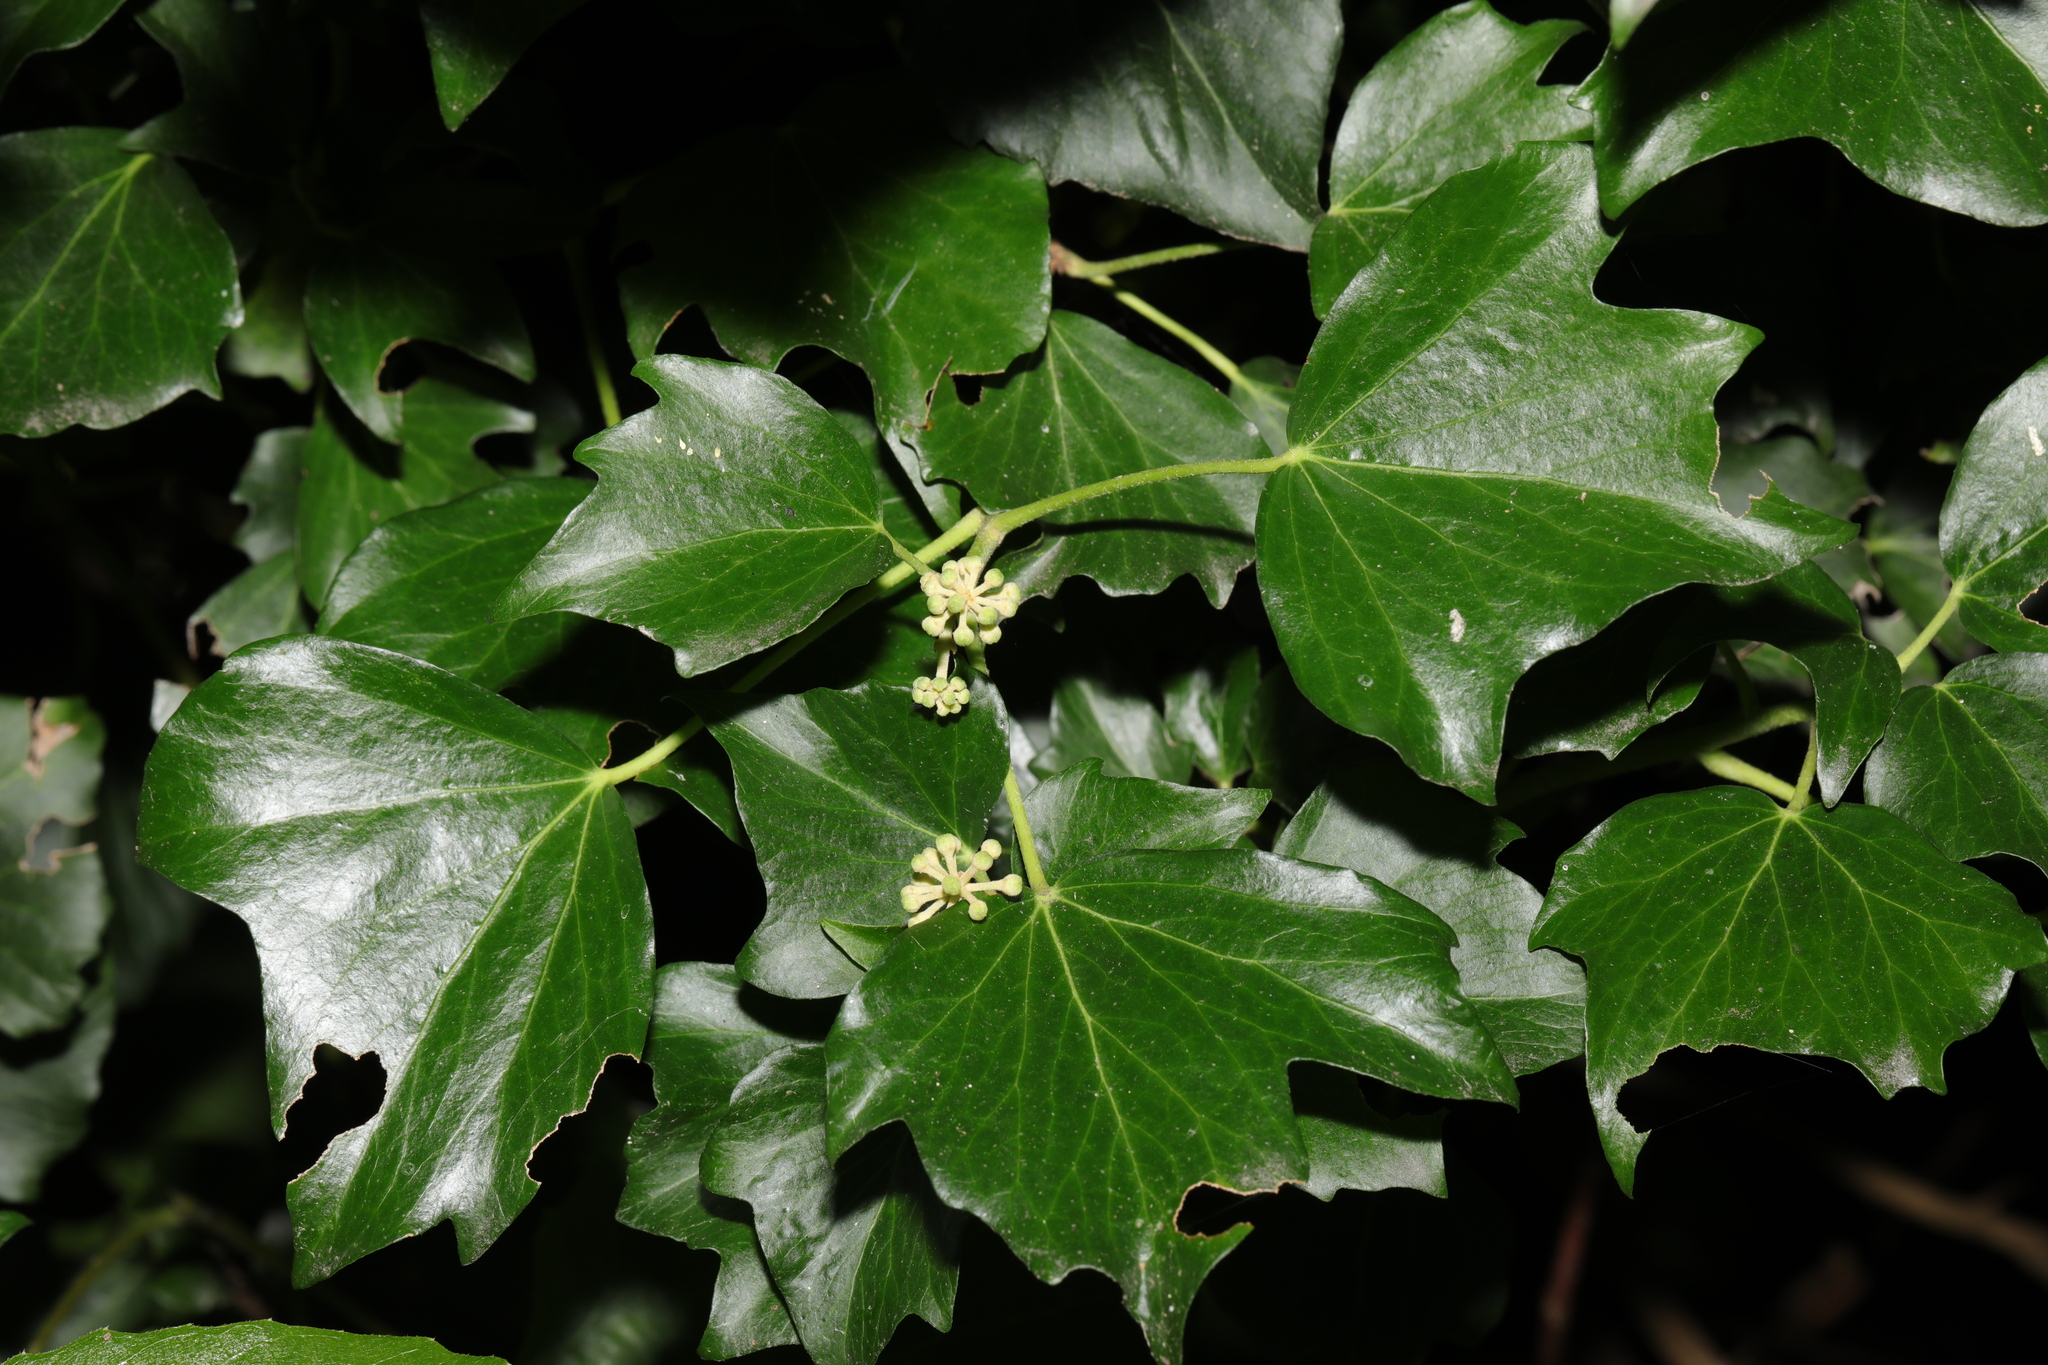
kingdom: Plantae
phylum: Tracheophyta
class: Magnoliopsida
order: Apiales
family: Araliaceae
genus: Hedera
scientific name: Hedera helix
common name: Ivy
